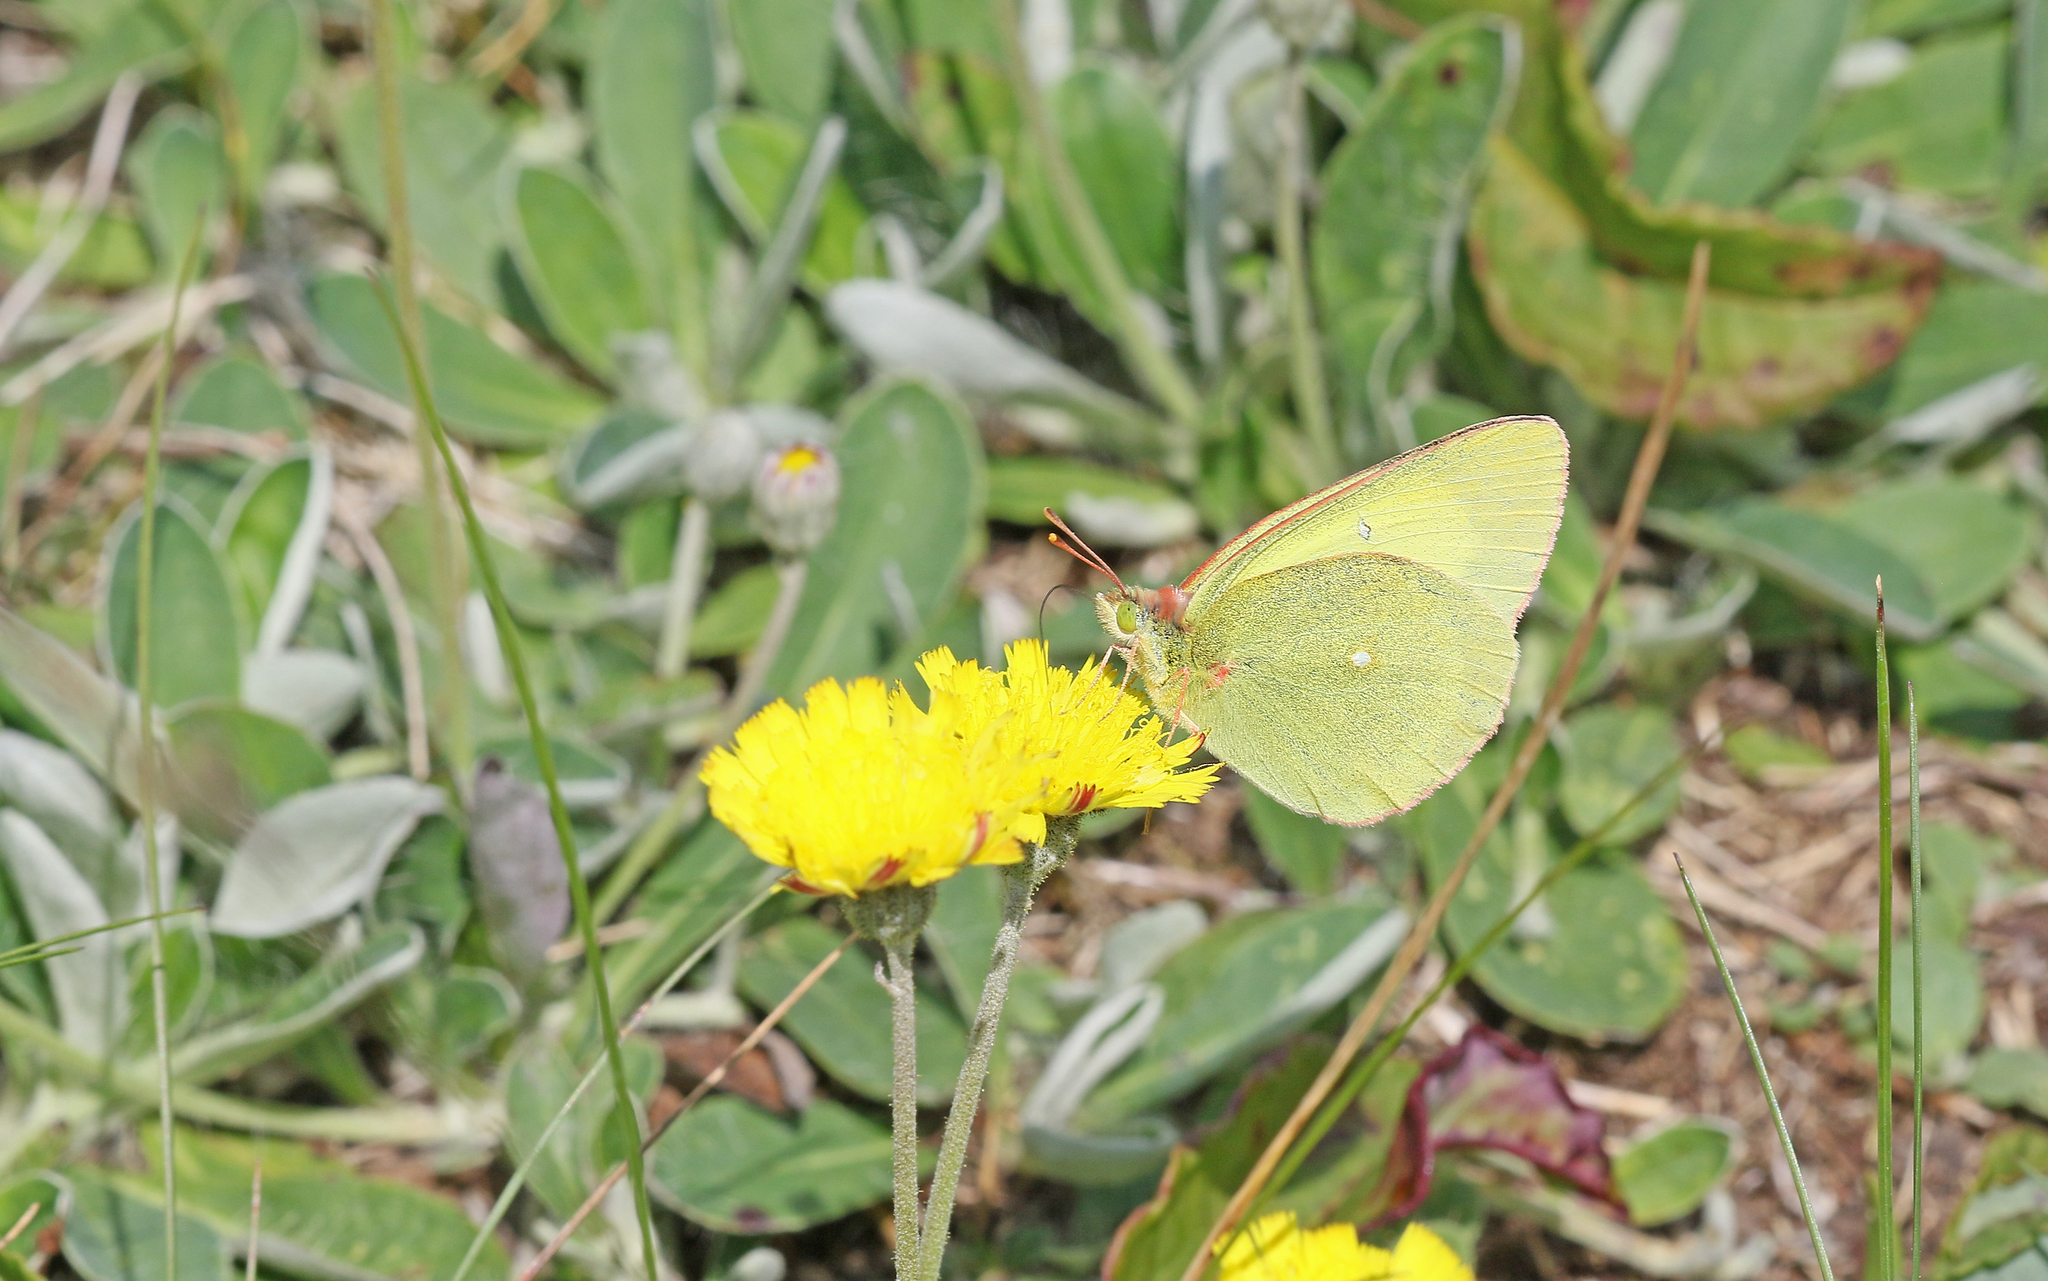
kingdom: Animalia
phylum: Arthropoda
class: Insecta
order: Lepidoptera
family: Pieridae
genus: Colias
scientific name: Colias palaeno
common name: Moorland clouded yellow
